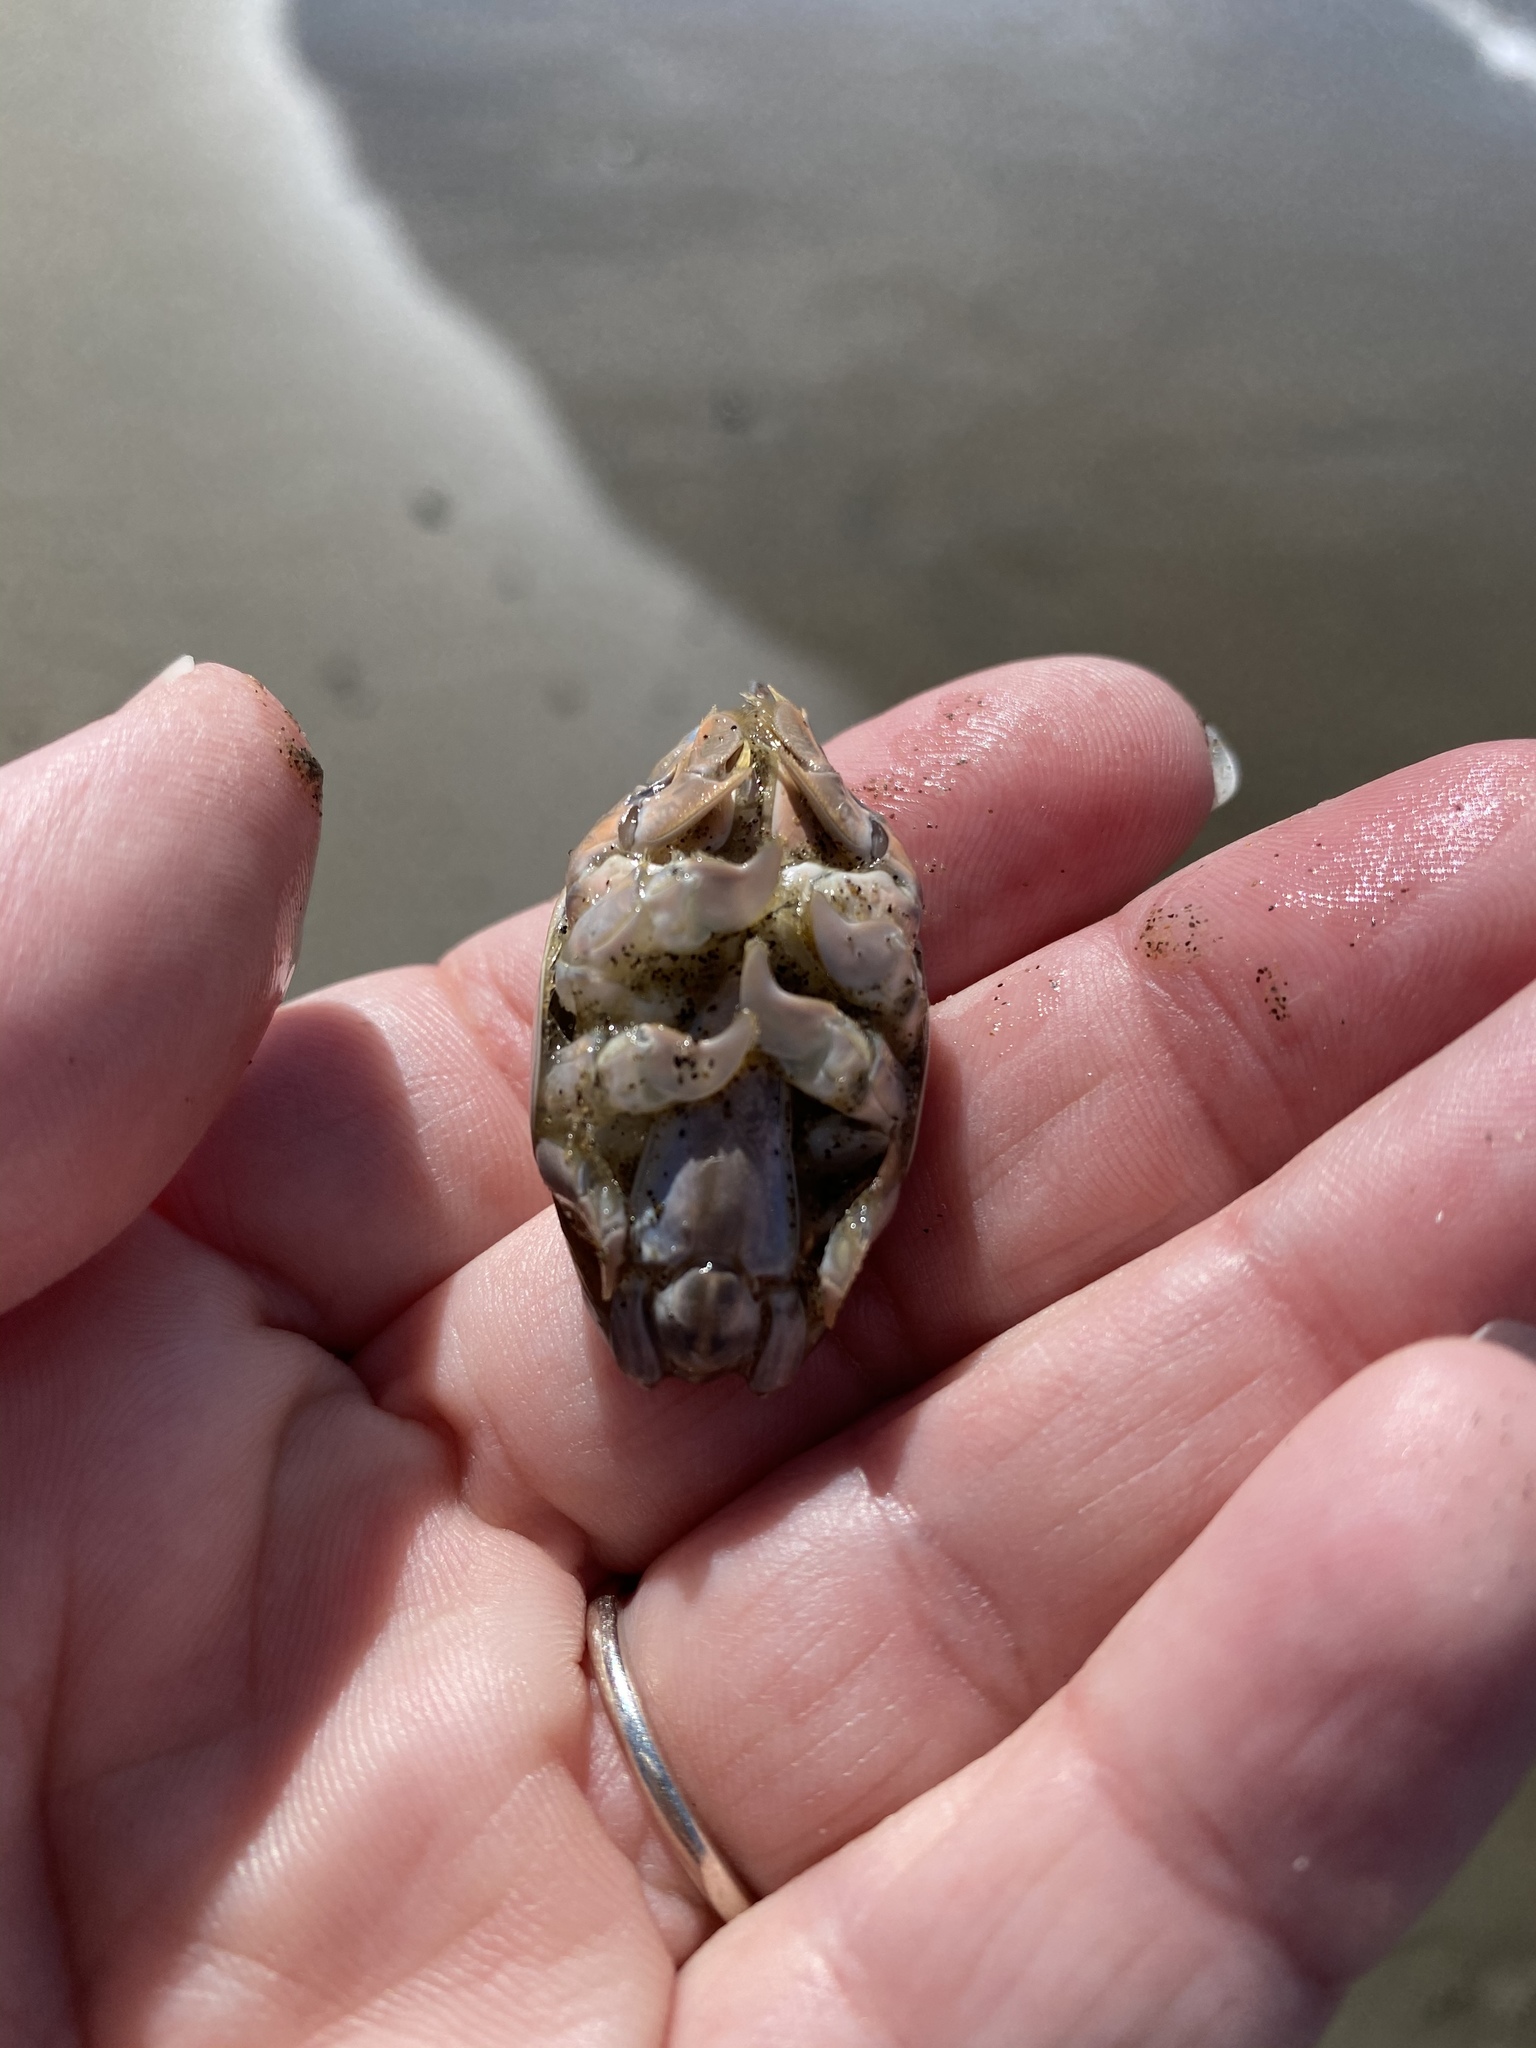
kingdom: Animalia
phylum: Arthropoda
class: Malacostraca
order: Decapoda
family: Hippidae
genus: Emerita
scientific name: Emerita analoga
